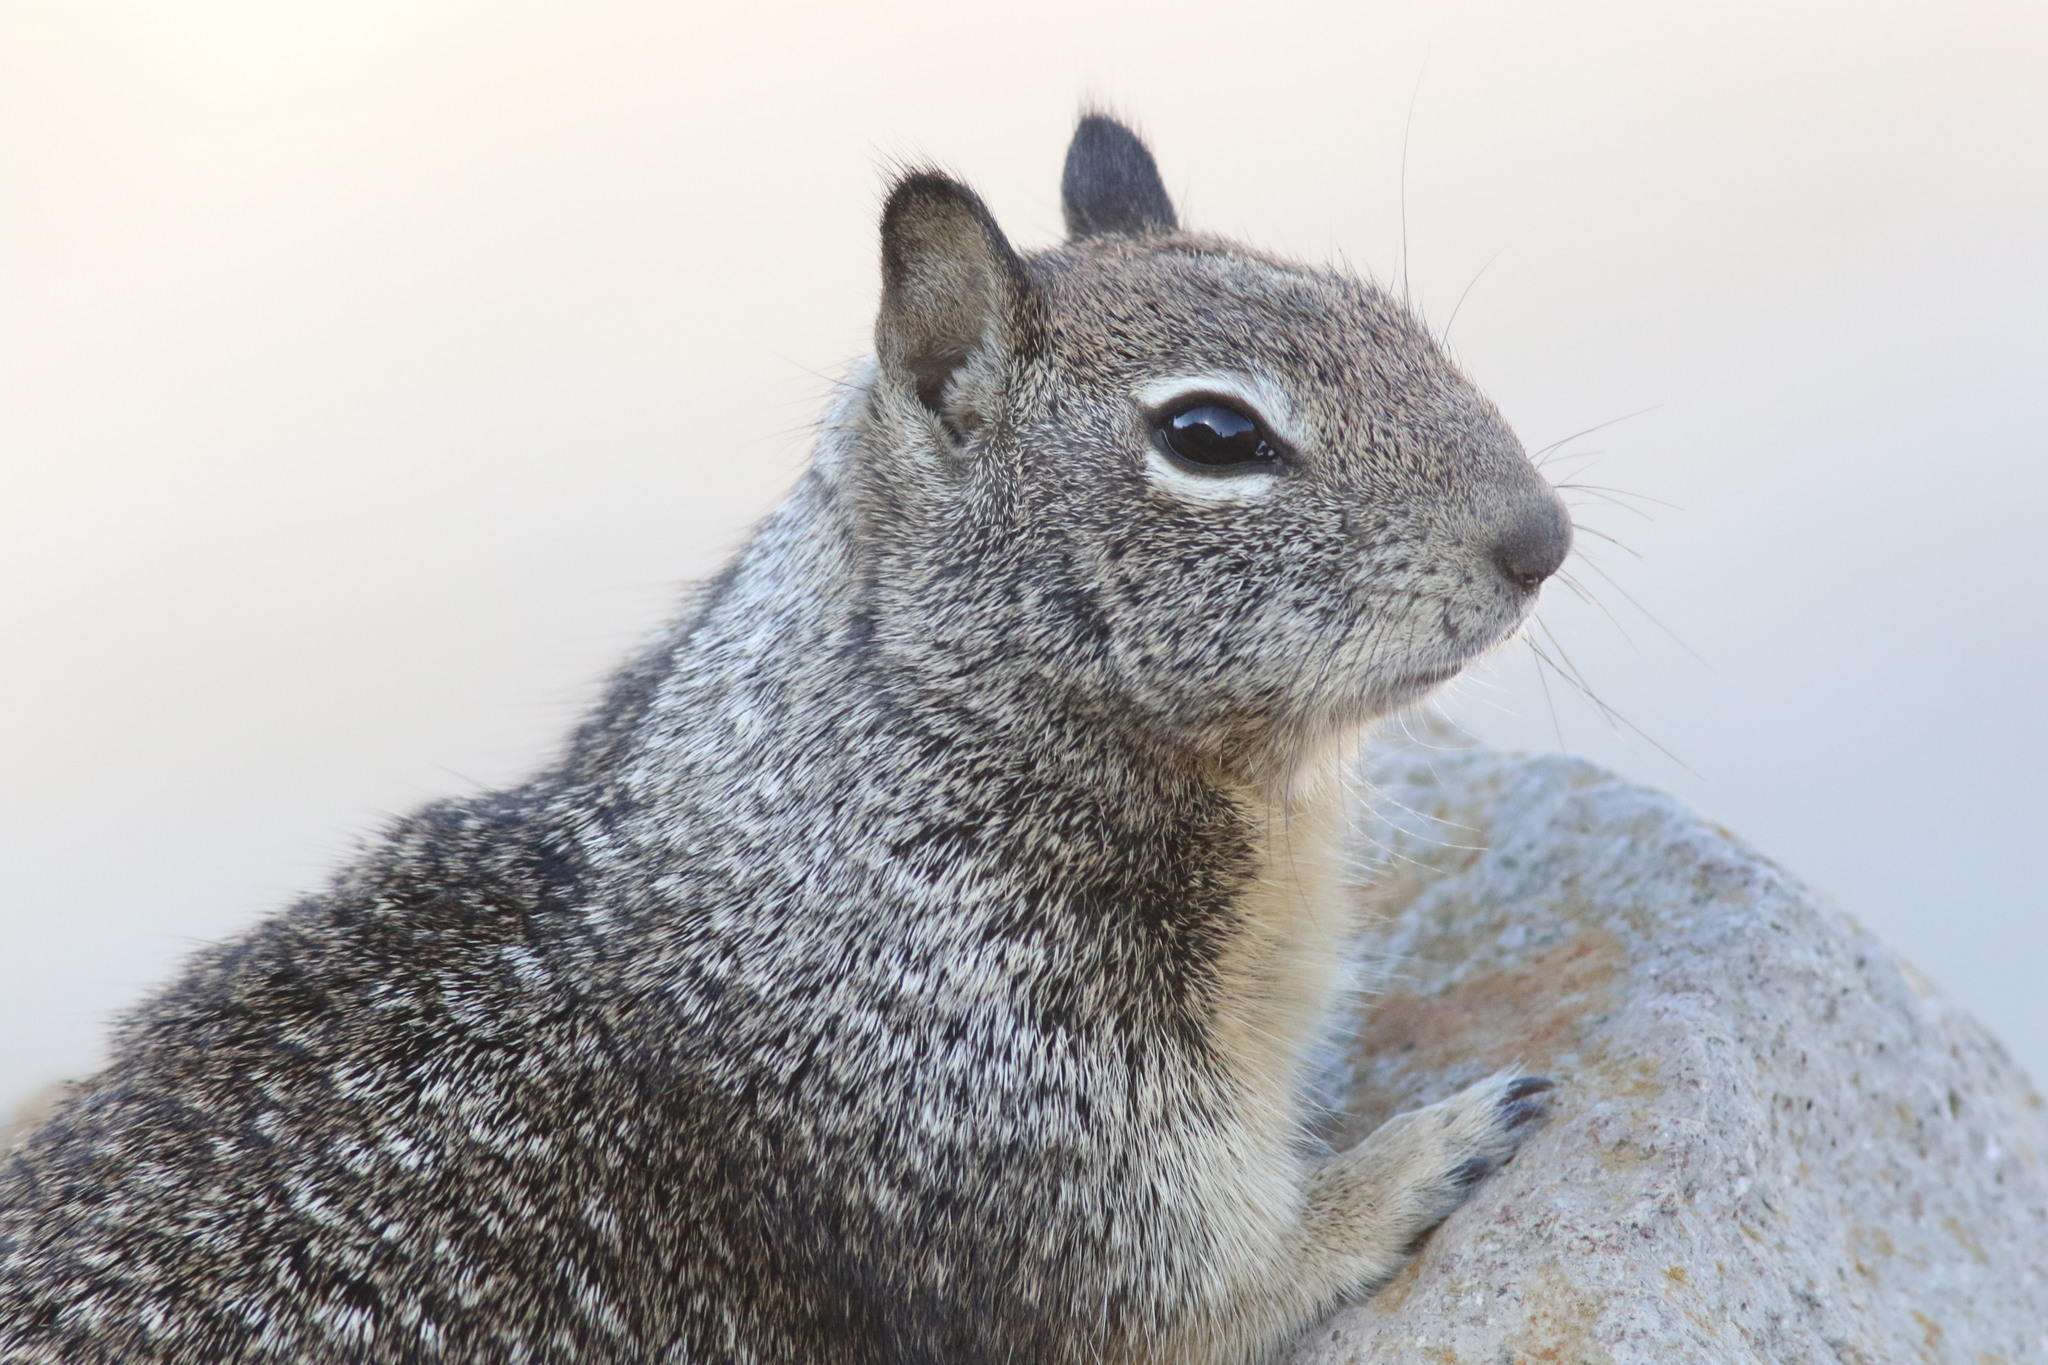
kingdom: Animalia
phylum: Chordata
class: Mammalia
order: Rodentia
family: Sciuridae
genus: Otospermophilus
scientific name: Otospermophilus beecheyi
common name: California ground squirrel
